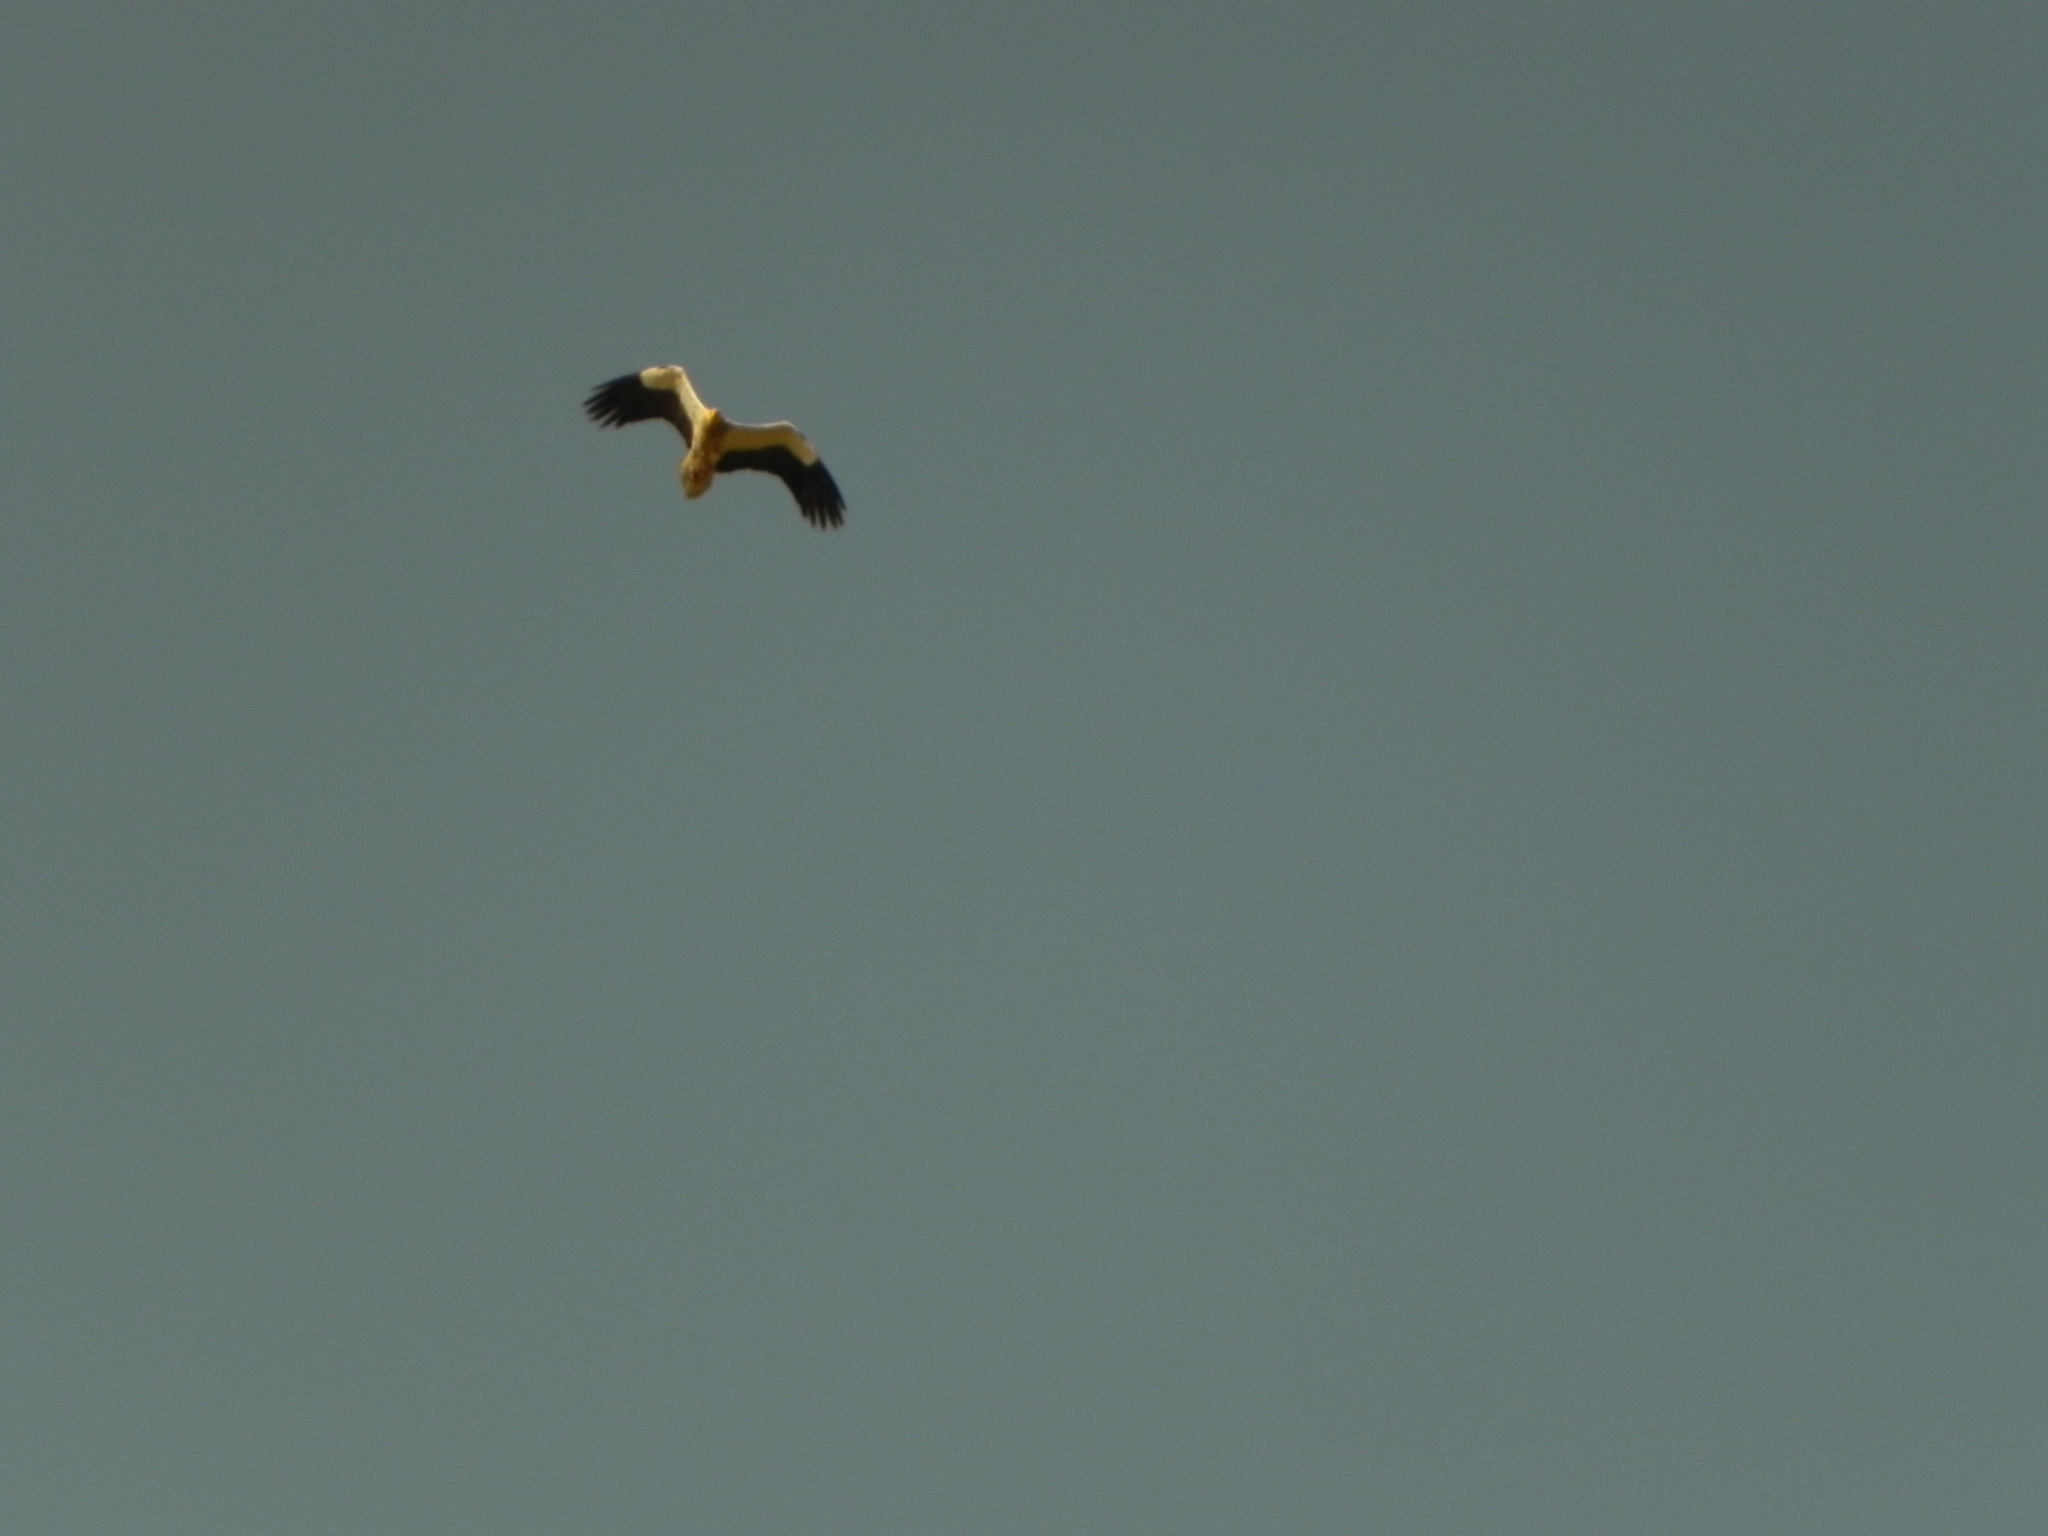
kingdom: Animalia
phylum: Chordata
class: Aves
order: Accipitriformes
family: Accipitridae
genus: Neophron
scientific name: Neophron percnopterus
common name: Egyptian vulture
